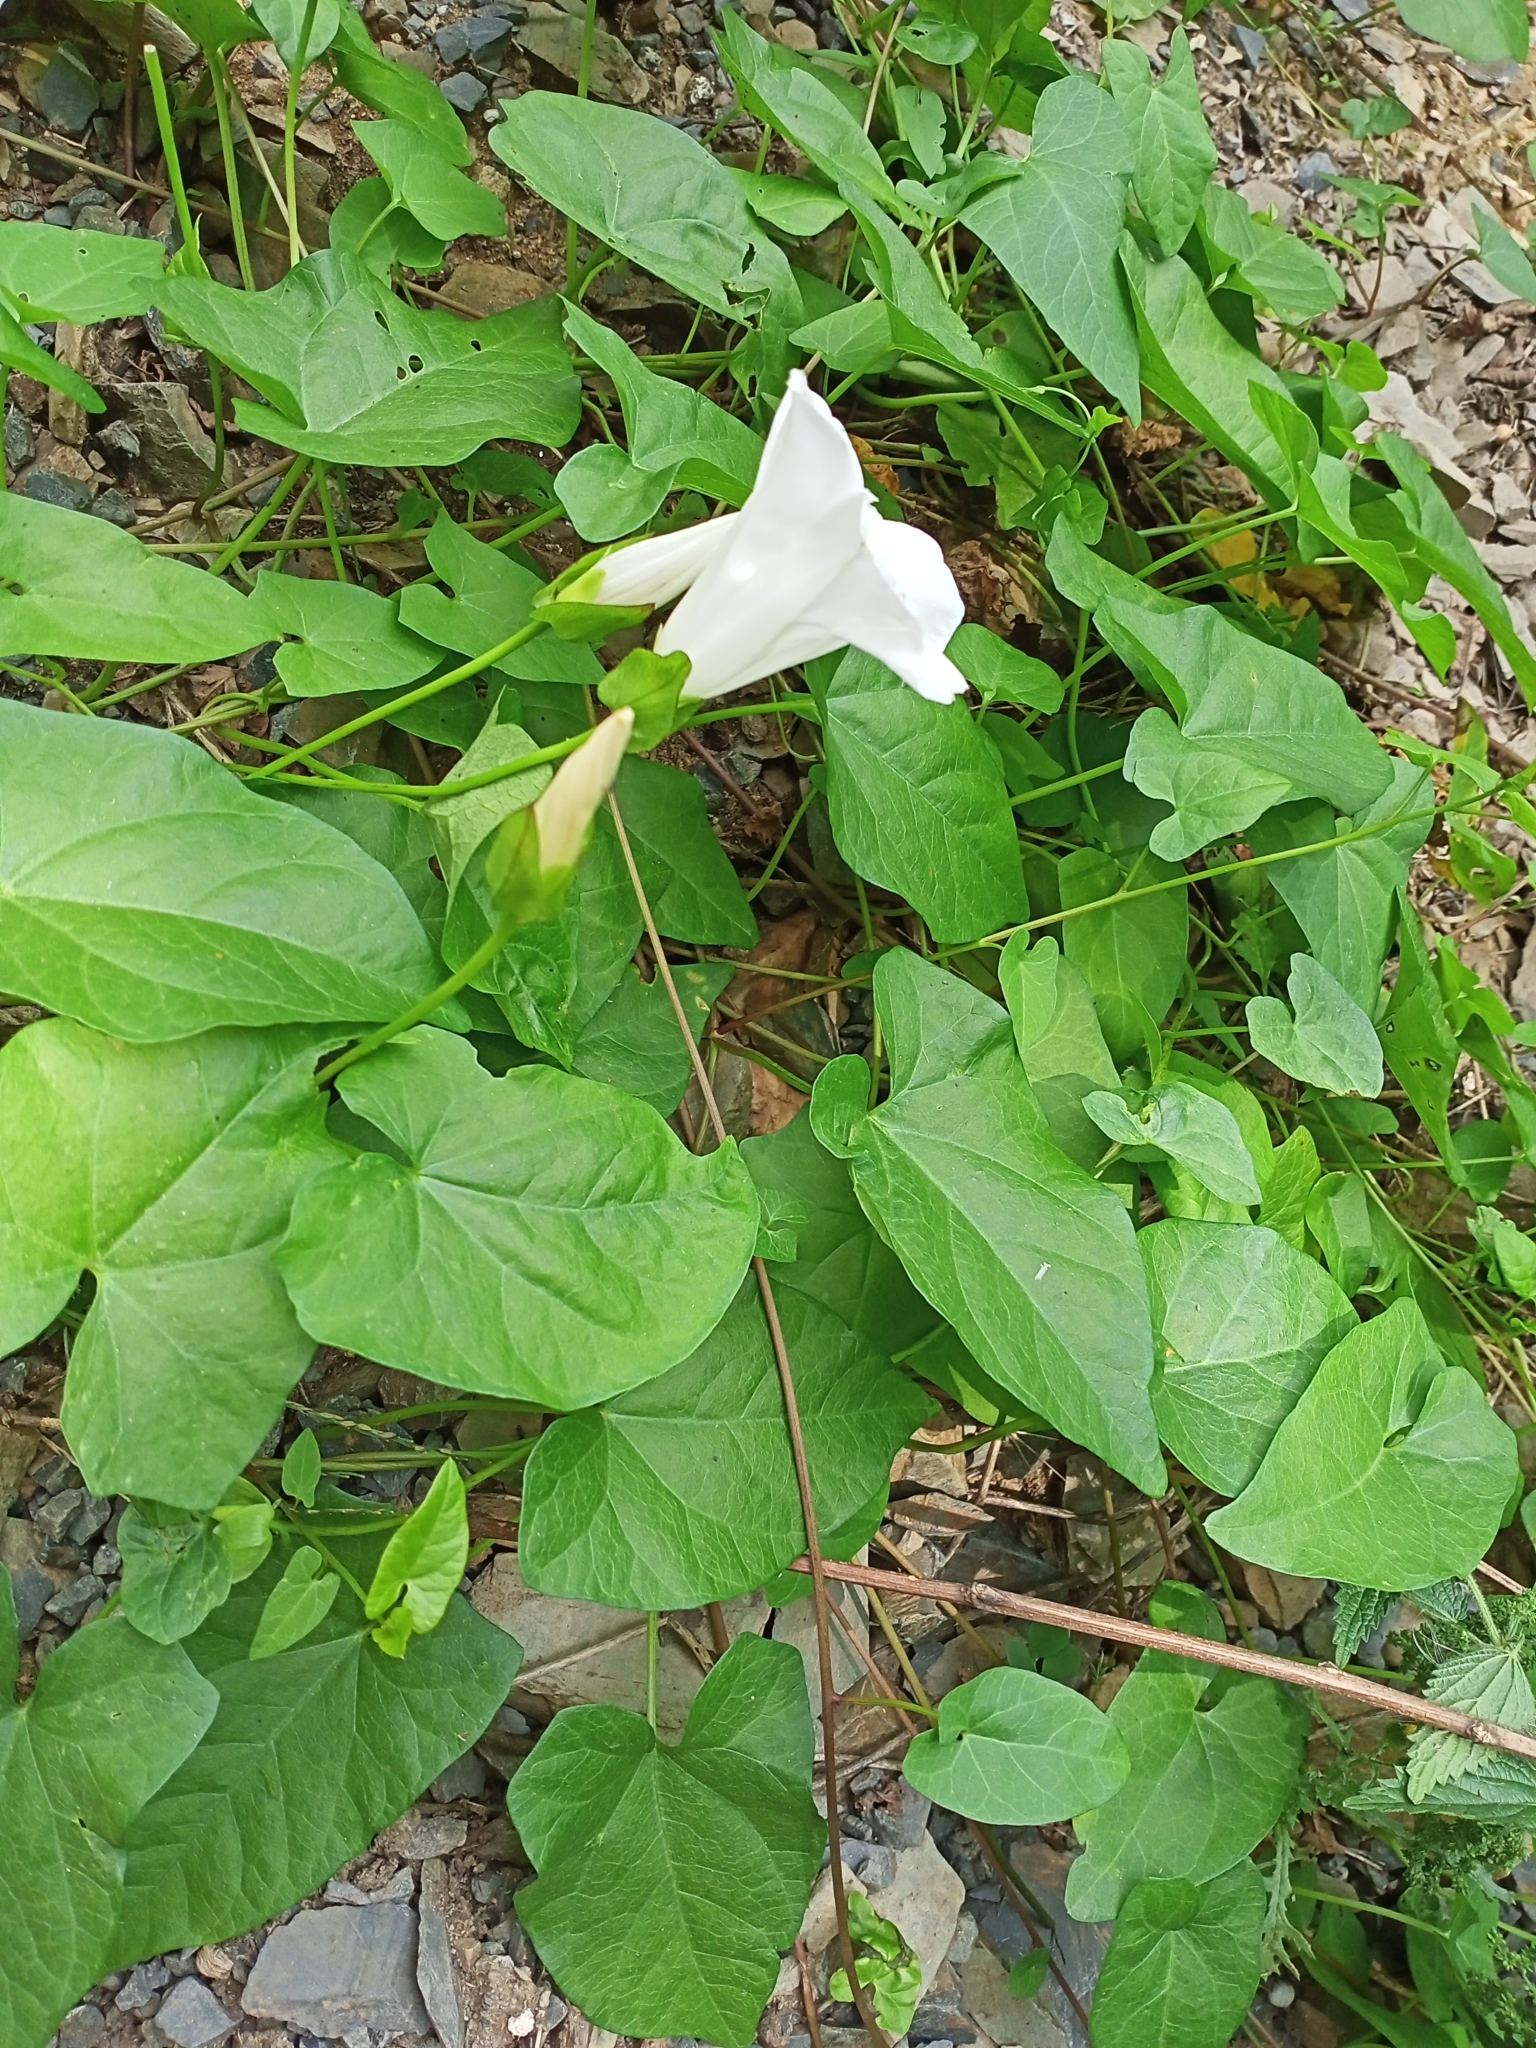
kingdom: Plantae
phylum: Tracheophyta
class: Magnoliopsida
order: Solanales
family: Convolvulaceae
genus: Calystegia
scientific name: Calystegia sepium
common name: Hedge bindweed
